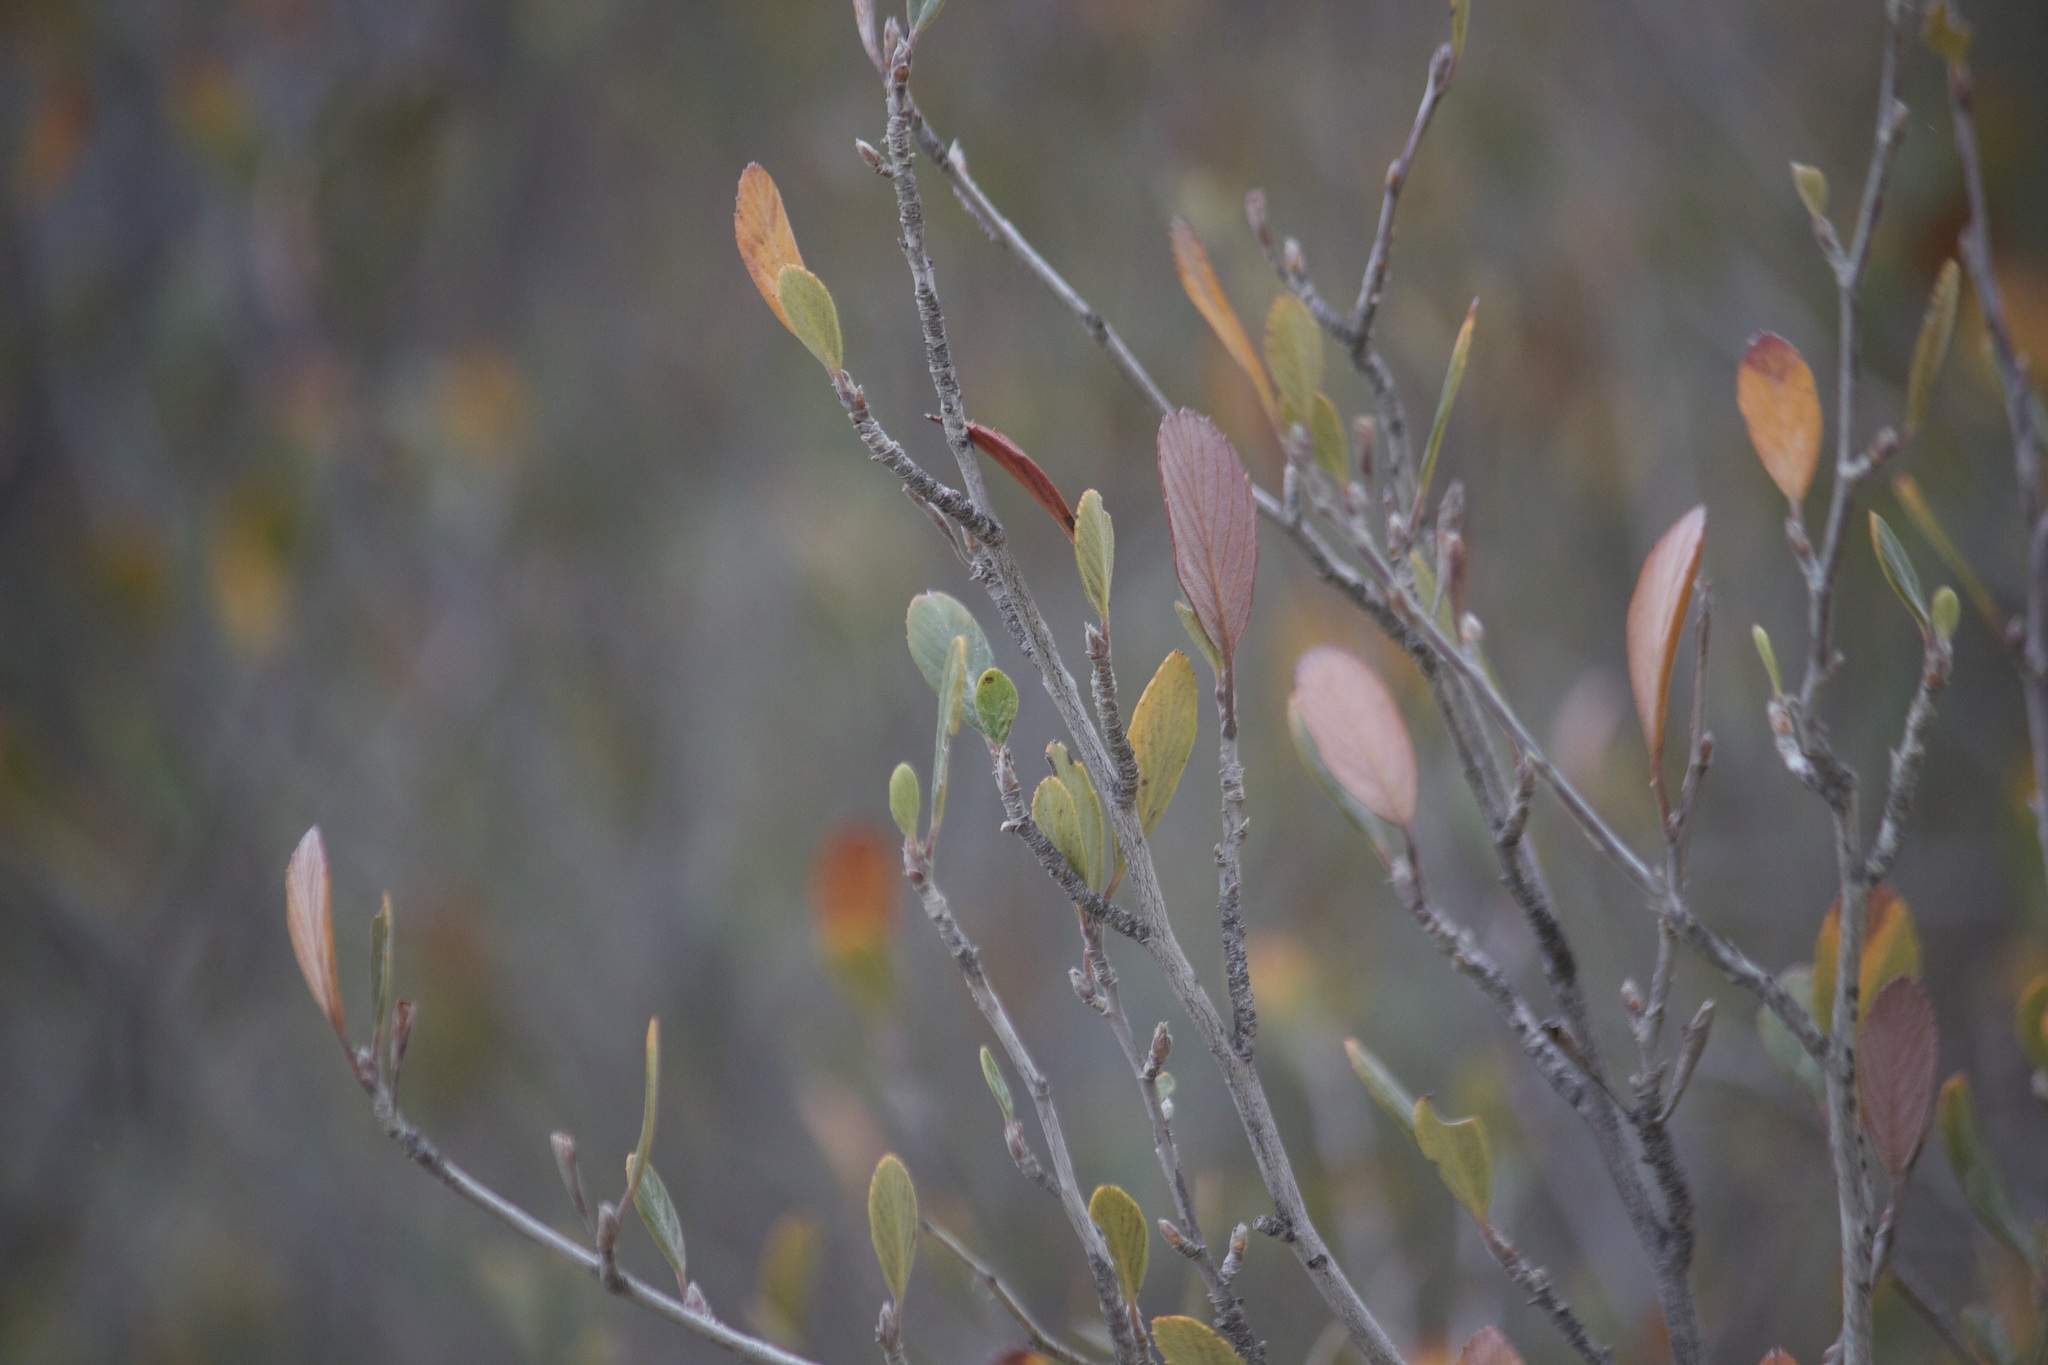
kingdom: Plantae
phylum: Tracheophyta
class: Magnoliopsida
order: Rosales
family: Rosaceae
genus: Cercocarpus
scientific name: Cercocarpus betuloides
